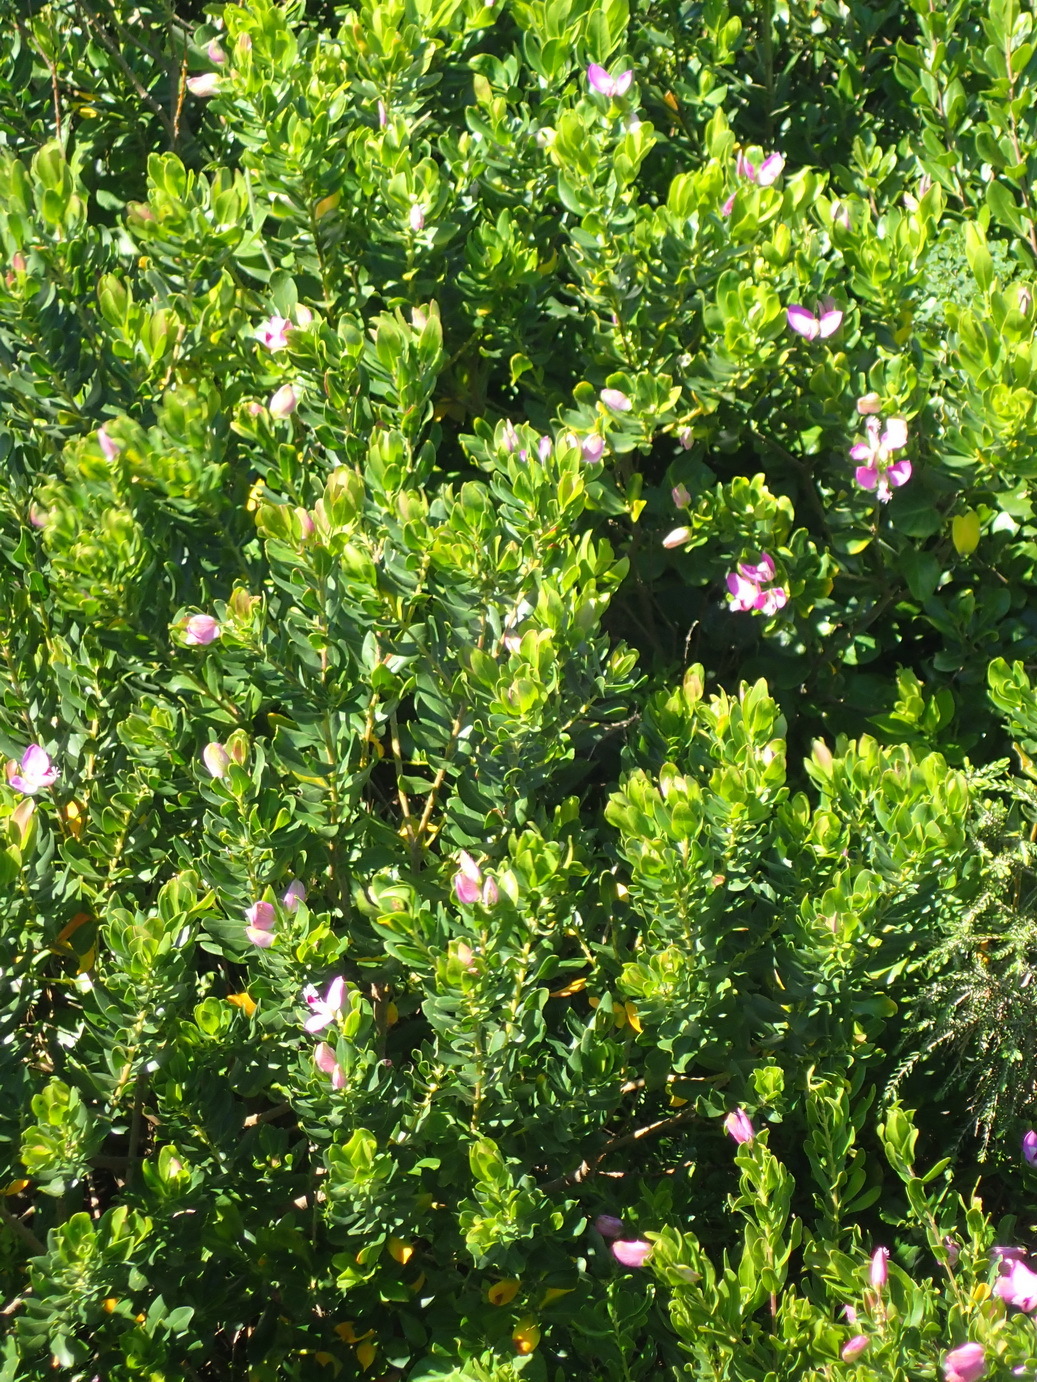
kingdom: Plantae
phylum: Tracheophyta
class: Magnoliopsida
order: Fabales
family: Polygalaceae
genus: Polygala
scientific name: Polygala myrtifolia
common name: Myrtle-leaf milkwort
